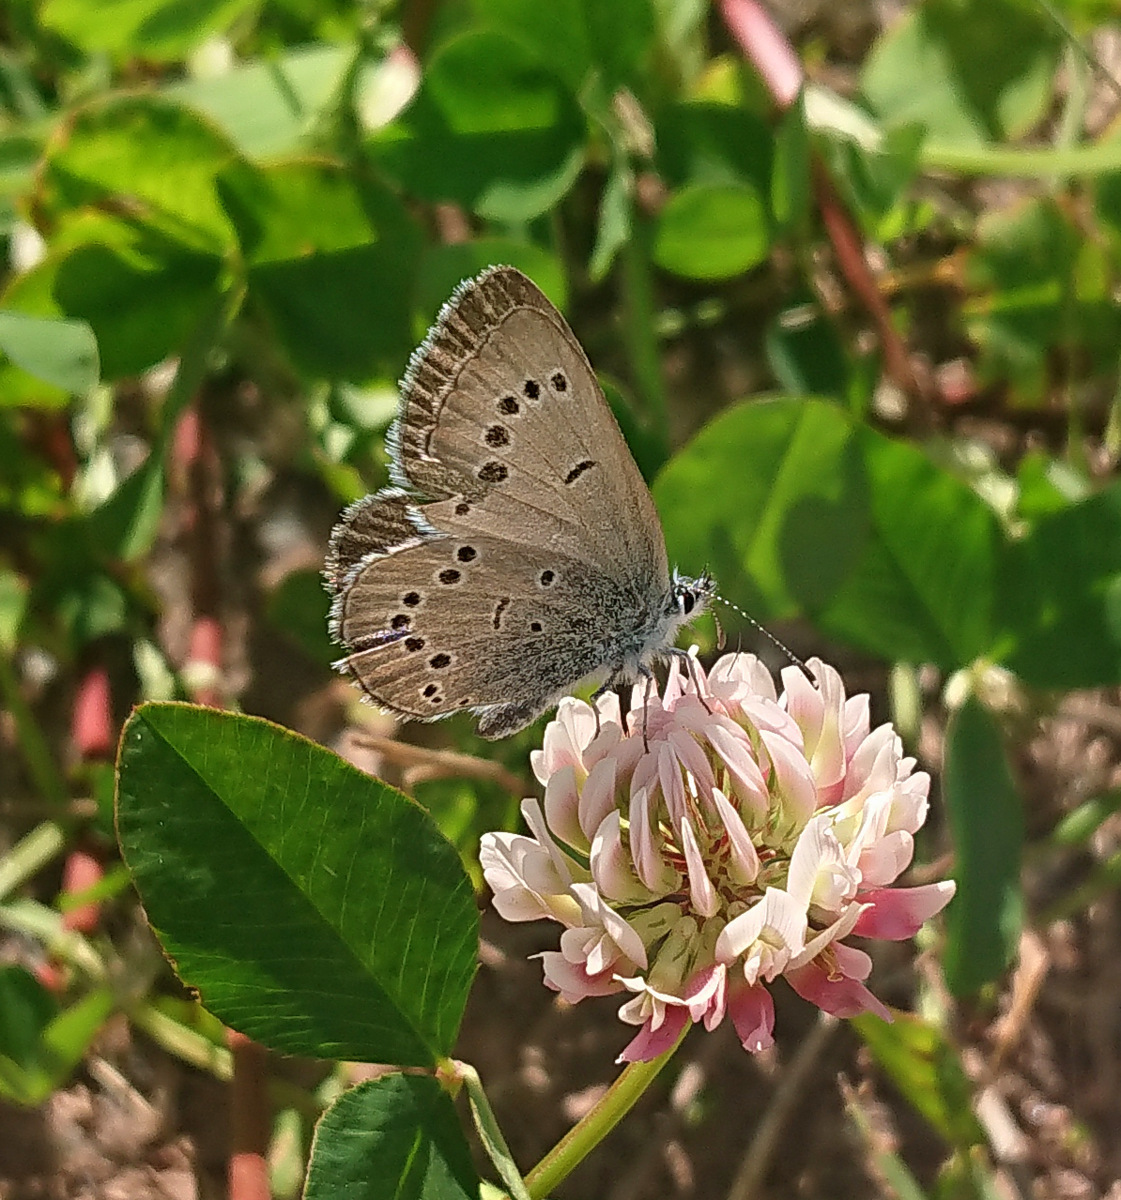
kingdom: Animalia
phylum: Arthropoda
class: Insecta
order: Lepidoptera
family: Lycaenidae
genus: Glaucopsyche
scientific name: Glaucopsyche lygdamus
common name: Silvery blue
